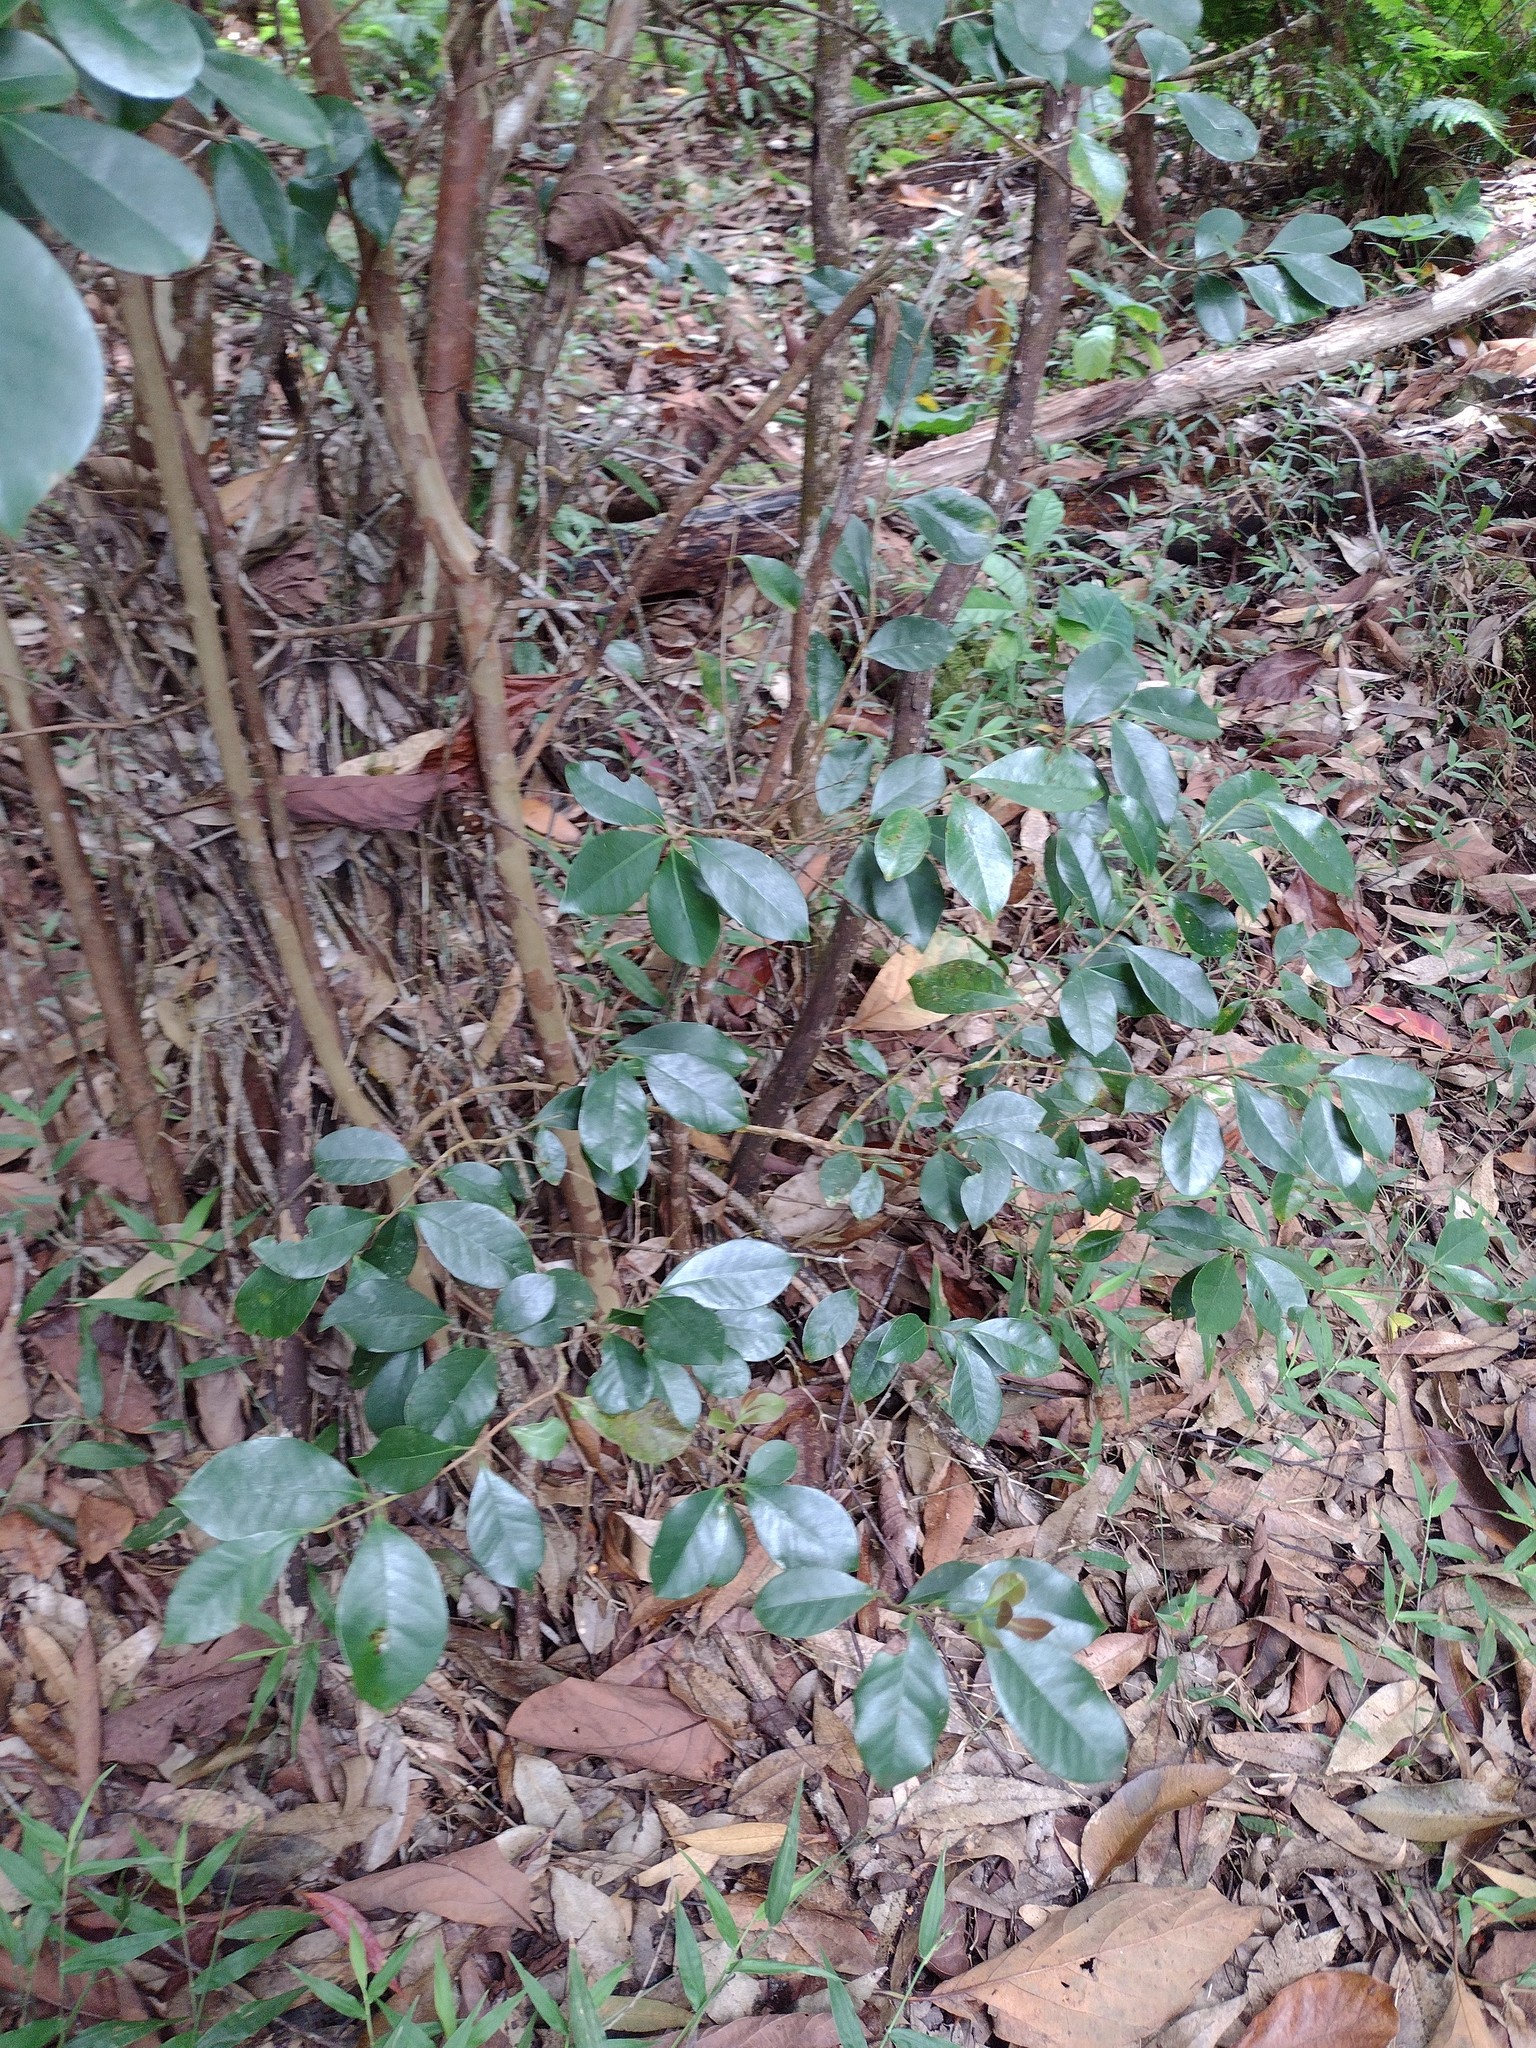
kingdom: Plantae
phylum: Tracheophyta
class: Magnoliopsida
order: Myrtales
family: Myrtaceae
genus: Psidium
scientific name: Psidium cattleianum
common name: Strawberry guava
